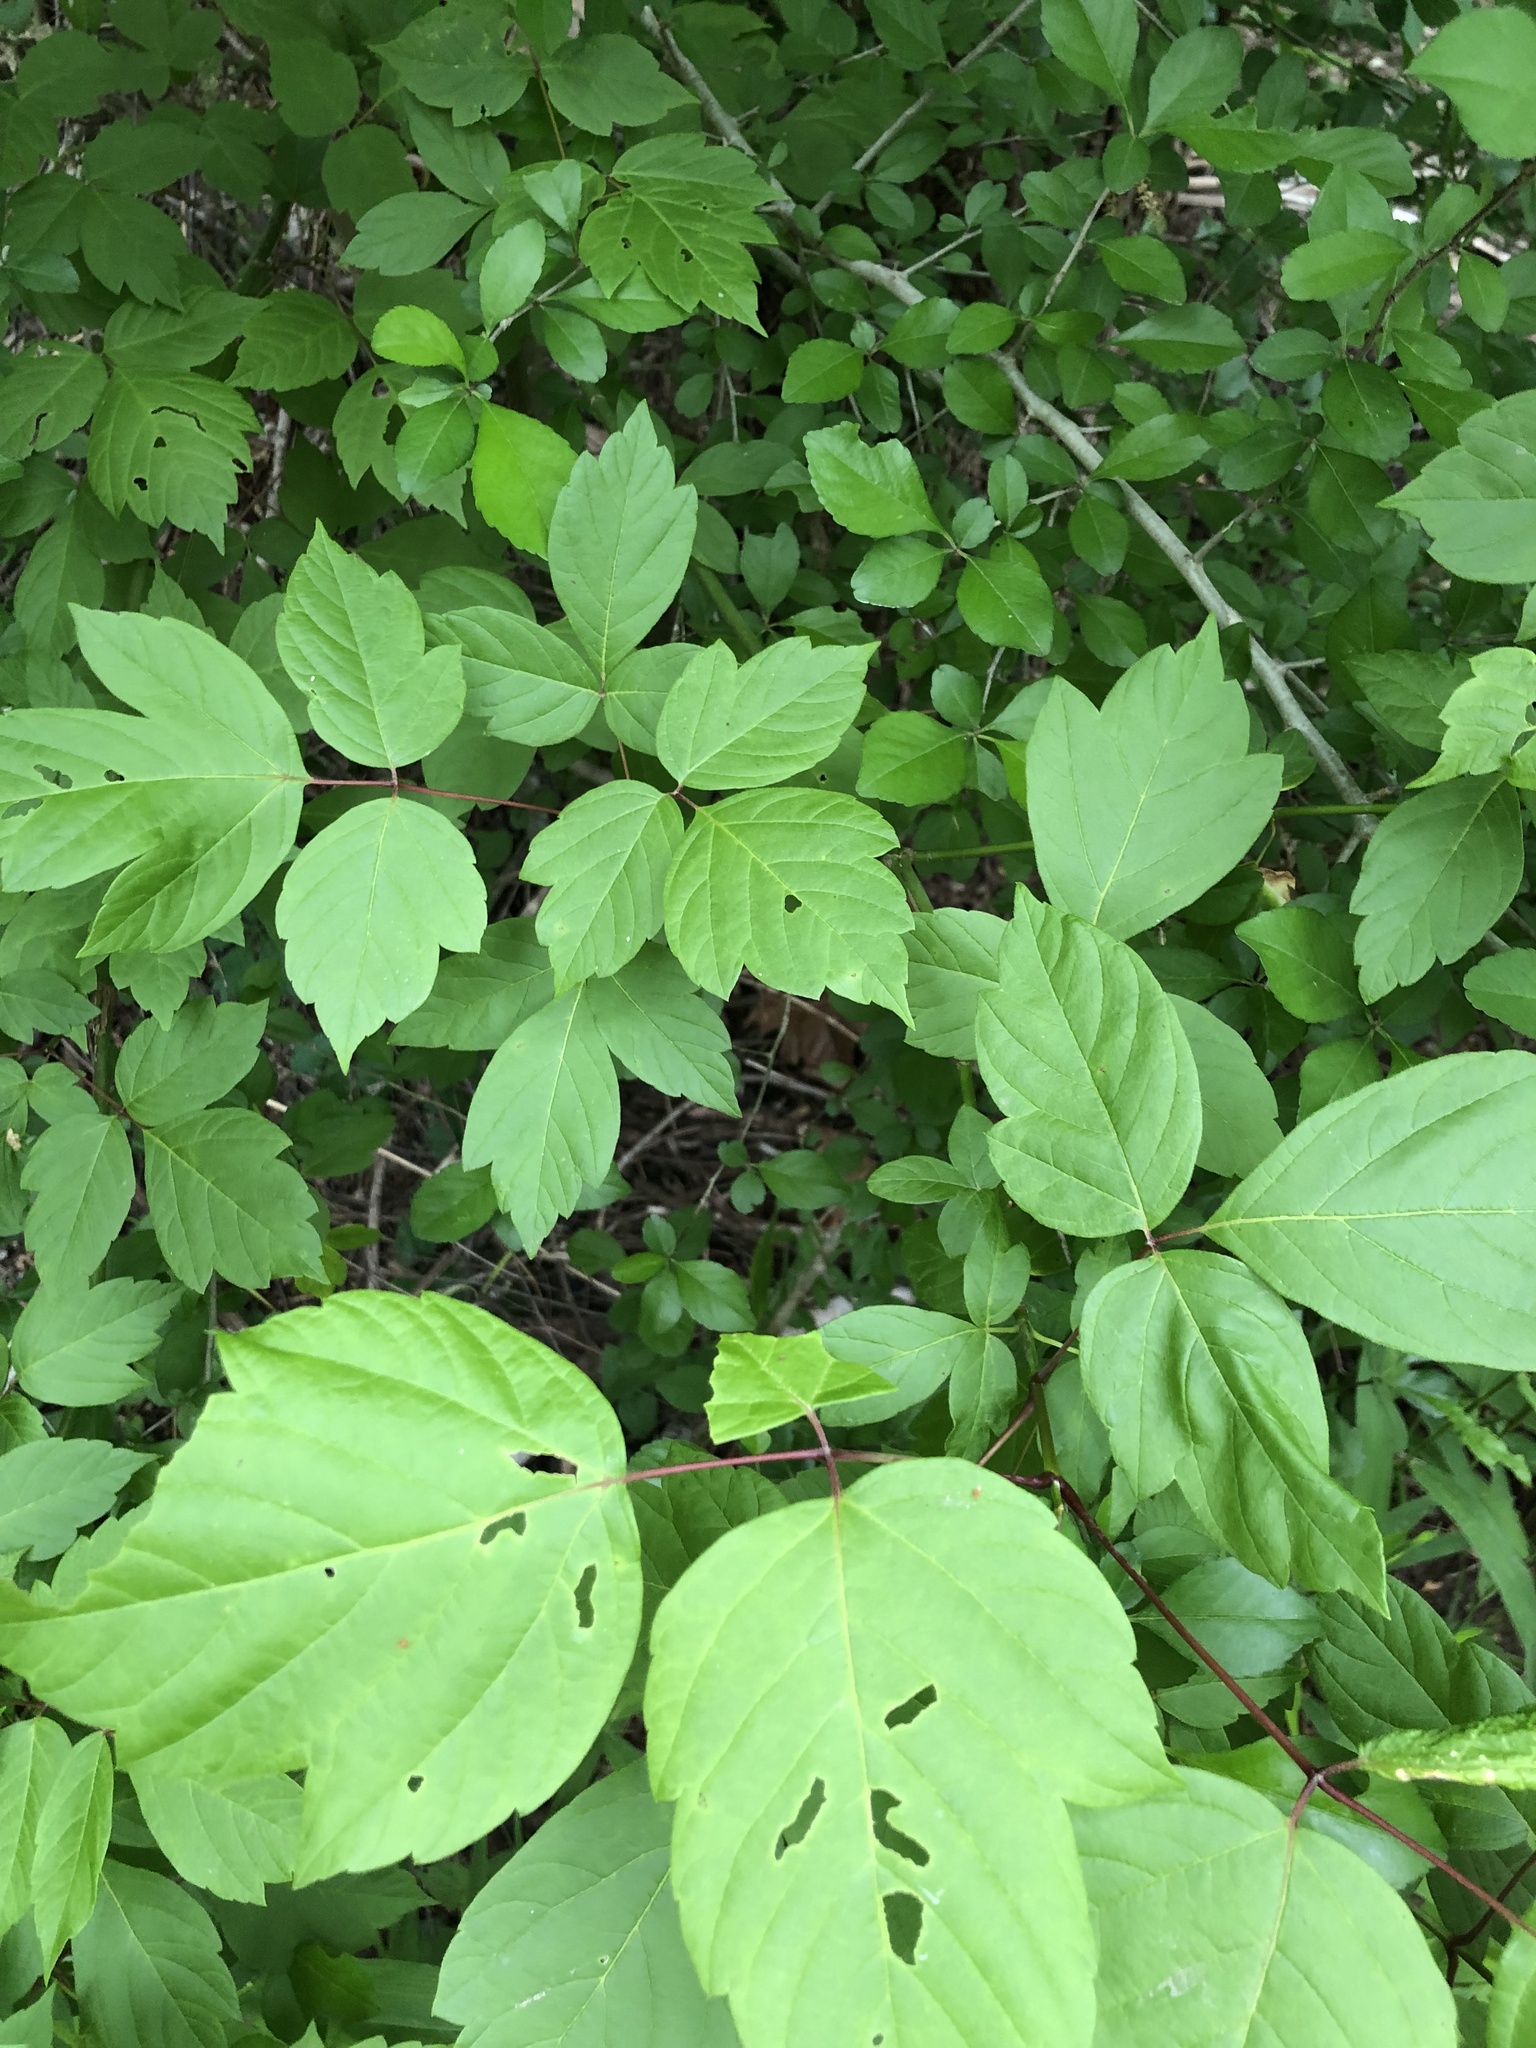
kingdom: Plantae
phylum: Tracheophyta
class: Magnoliopsida
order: Sapindales
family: Sapindaceae
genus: Acer
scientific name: Acer negundo
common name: Ashleaf maple
